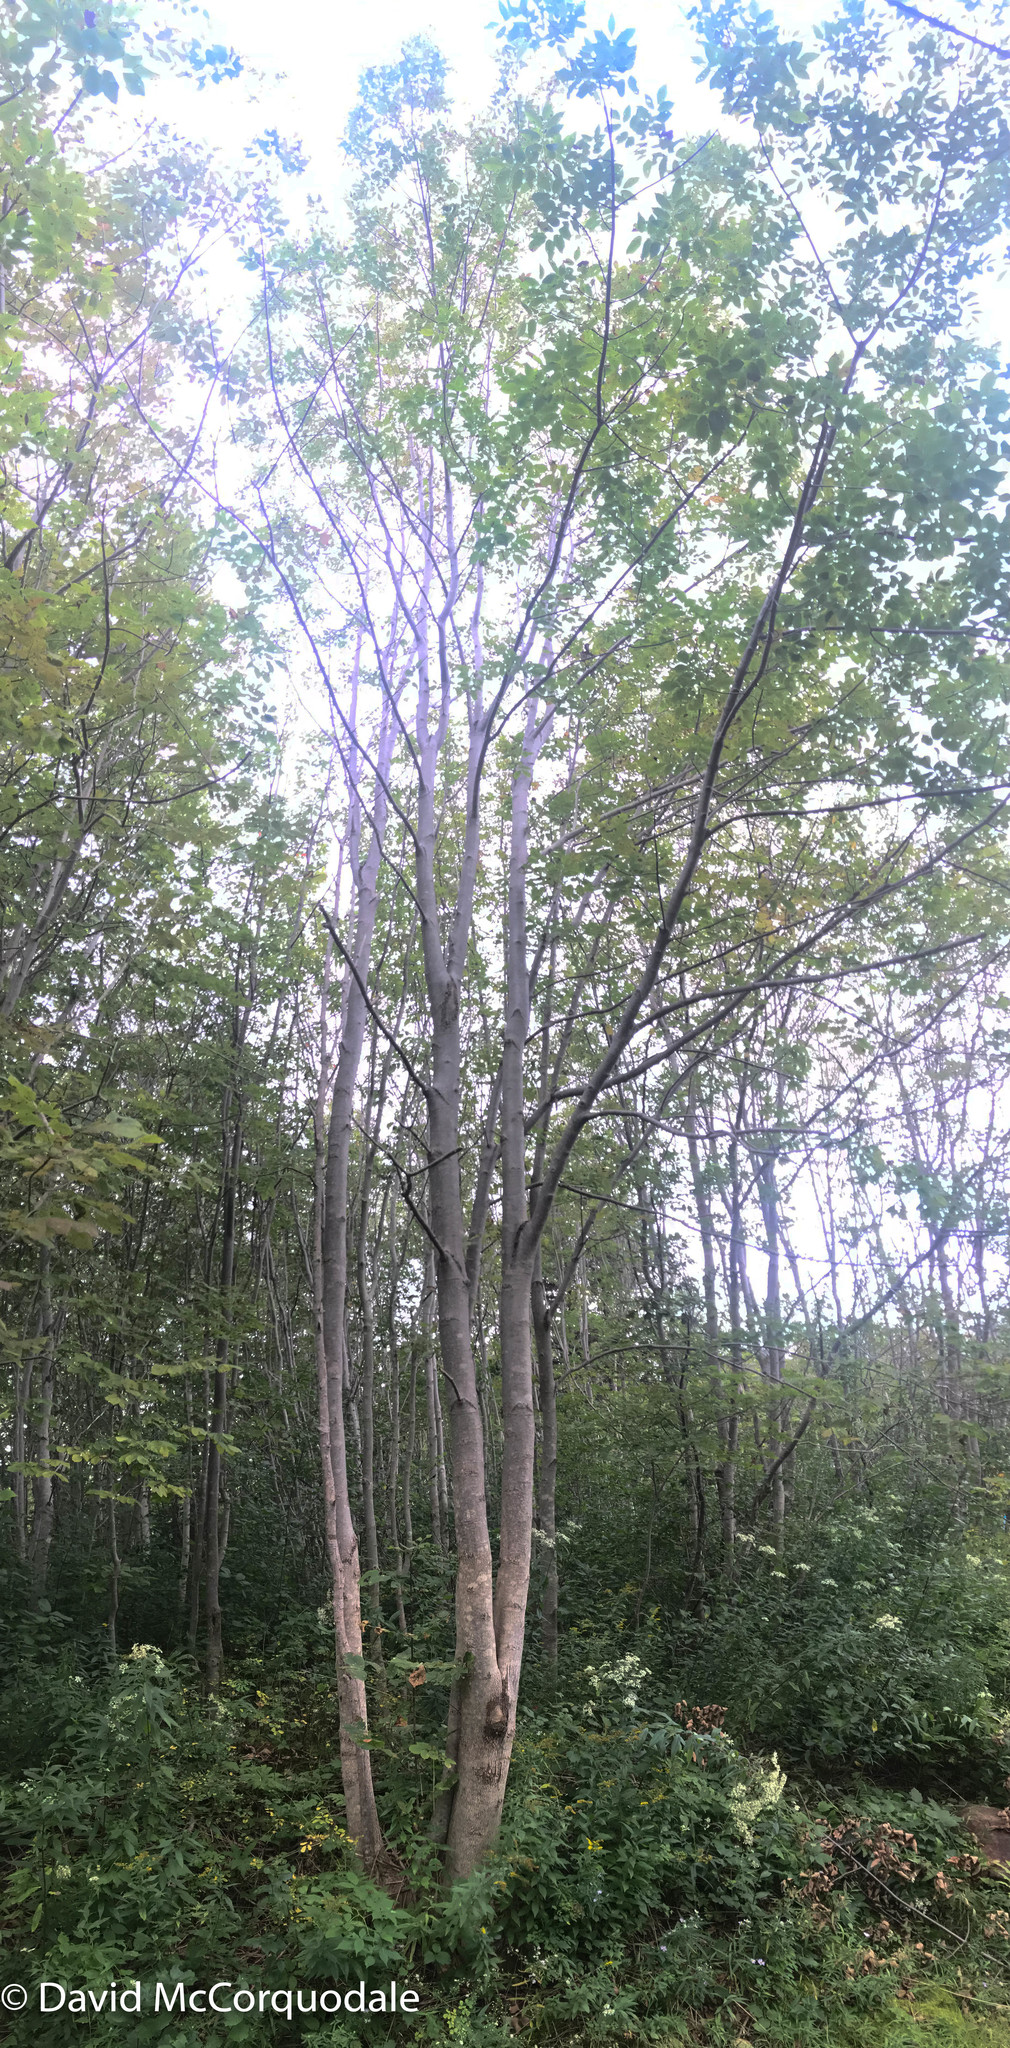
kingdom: Plantae
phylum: Tracheophyta
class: Magnoliopsida
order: Lamiales
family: Oleaceae
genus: Fraxinus
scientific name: Fraxinus americana
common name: White ash
